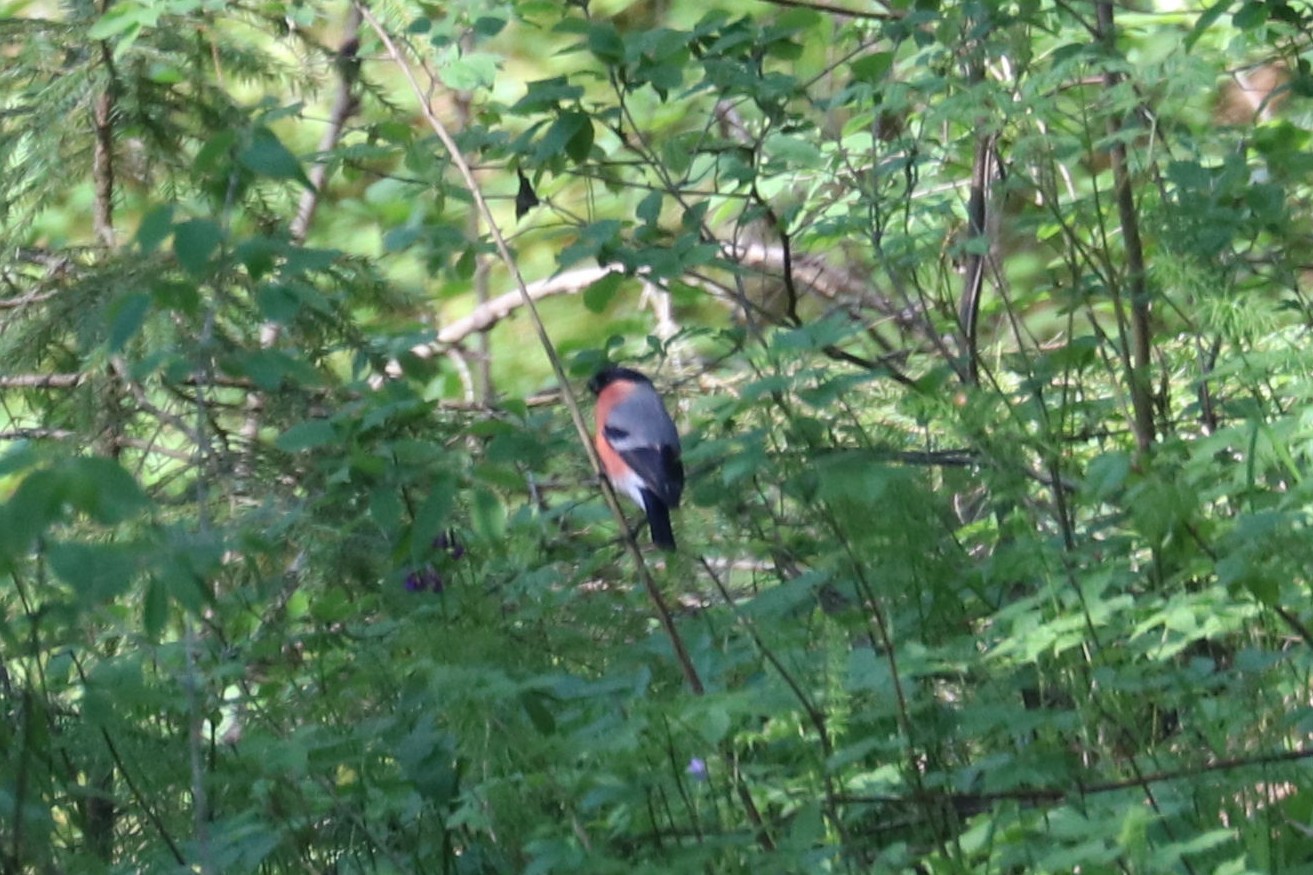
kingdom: Animalia
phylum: Chordata
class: Aves
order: Passeriformes
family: Fringillidae
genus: Pyrrhula
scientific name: Pyrrhula pyrrhula
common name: Eurasian bullfinch
